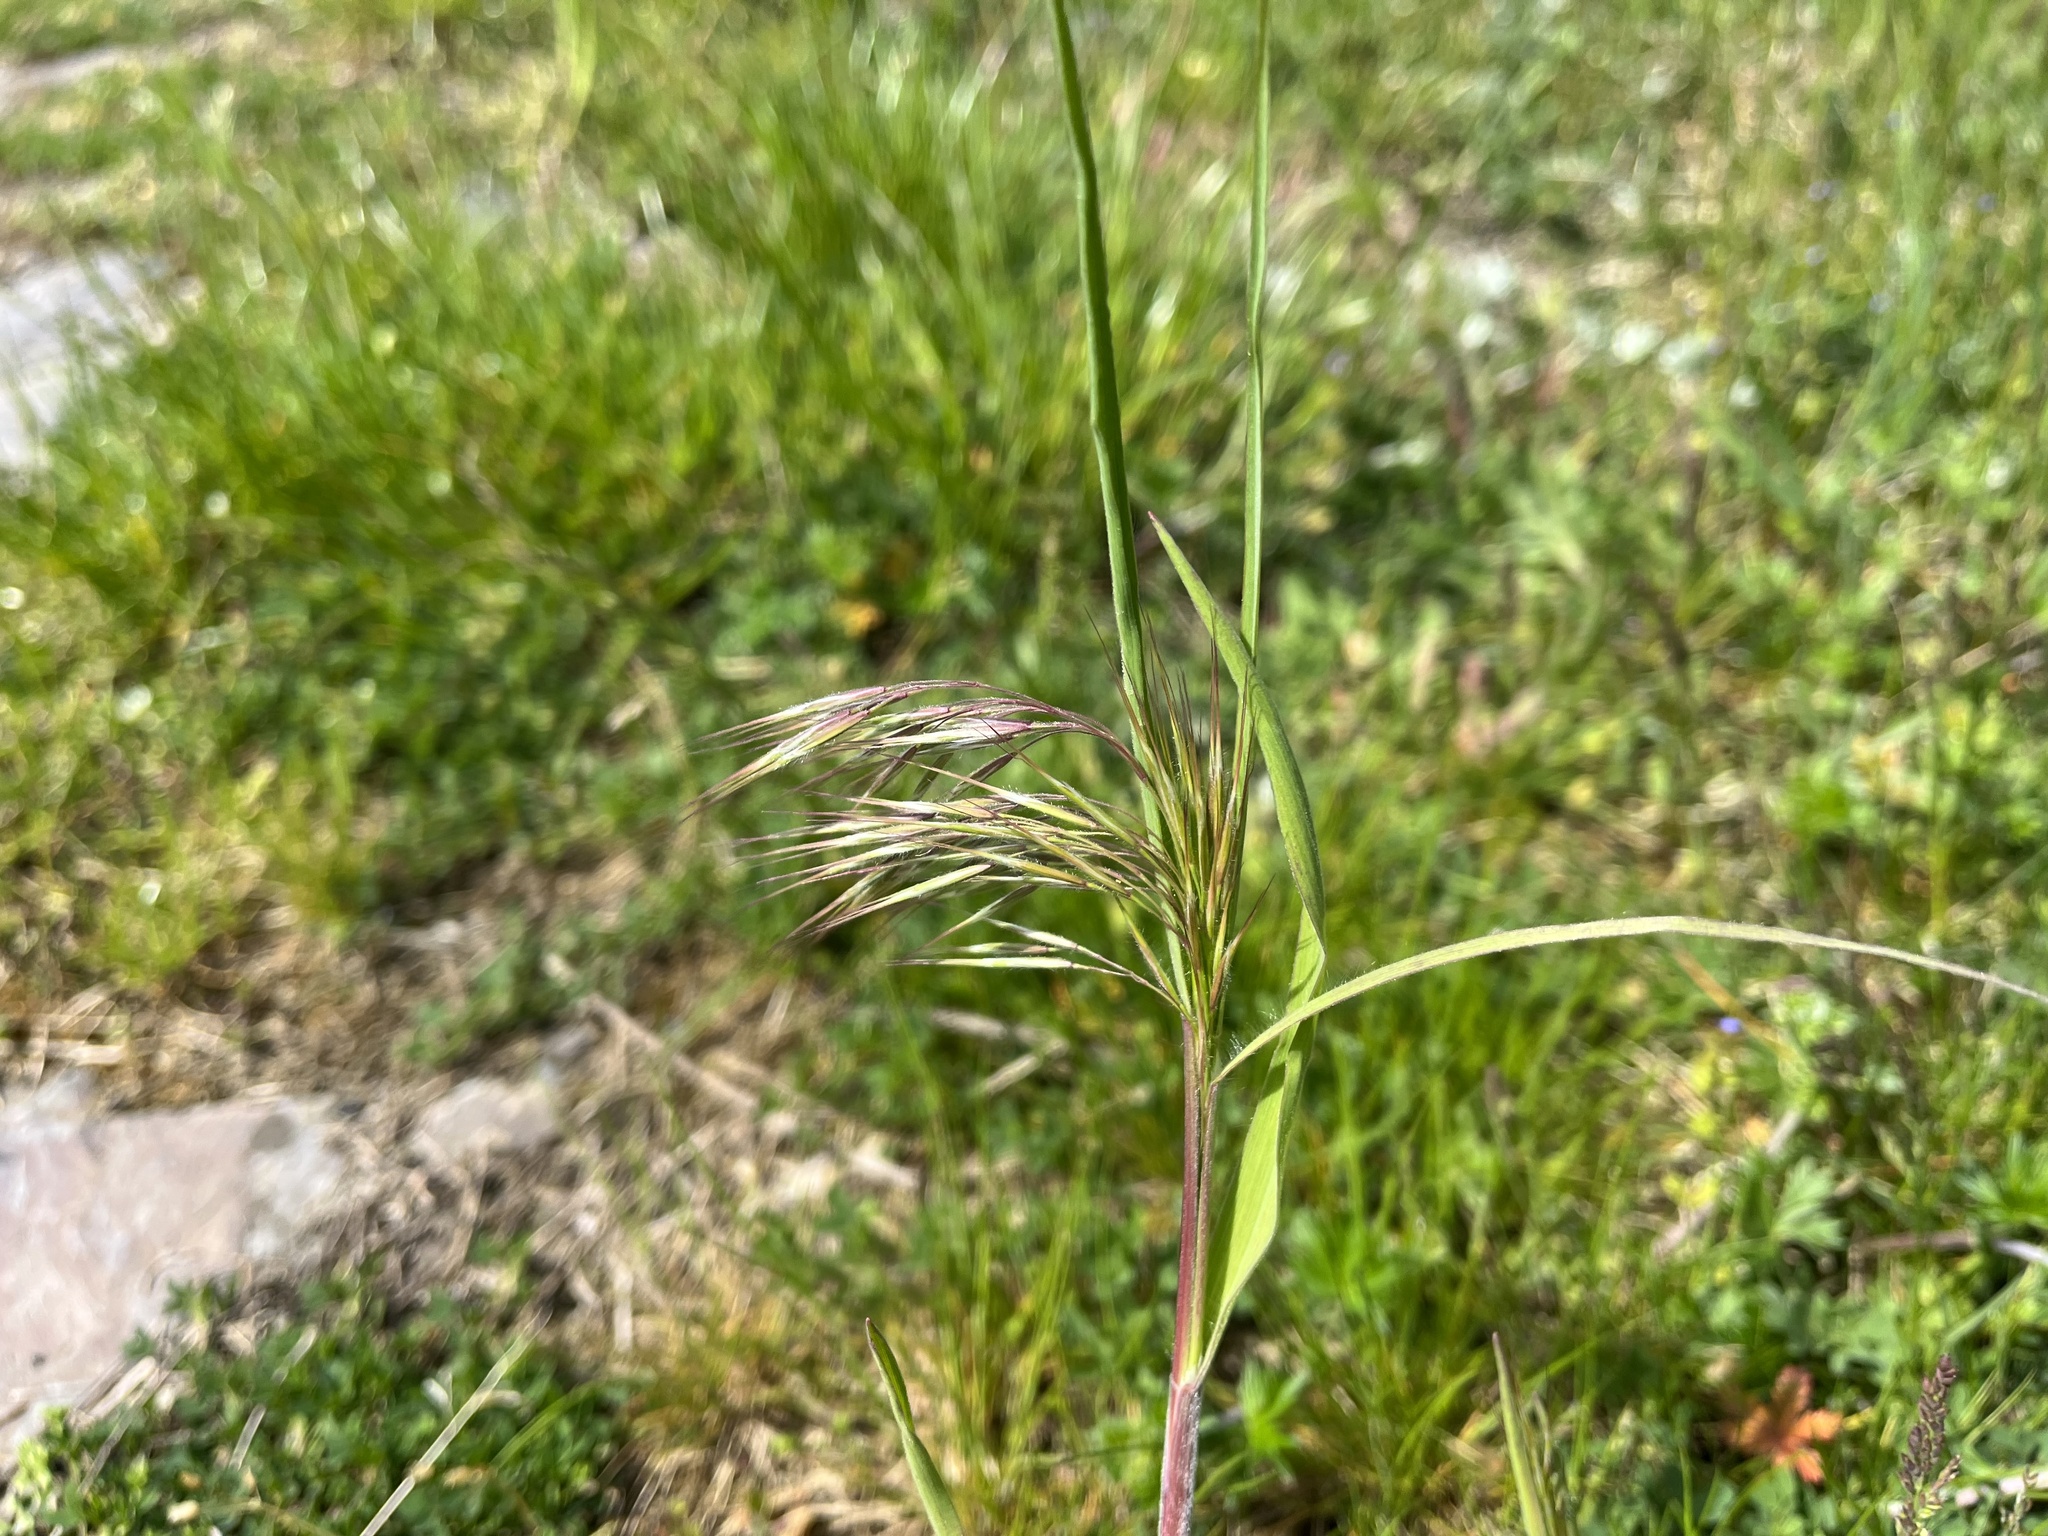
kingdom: Plantae
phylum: Tracheophyta
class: Liliopsida
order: Poales
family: Poaceae
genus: Bromus
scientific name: Bromus tectorum
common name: Cheatgrass
